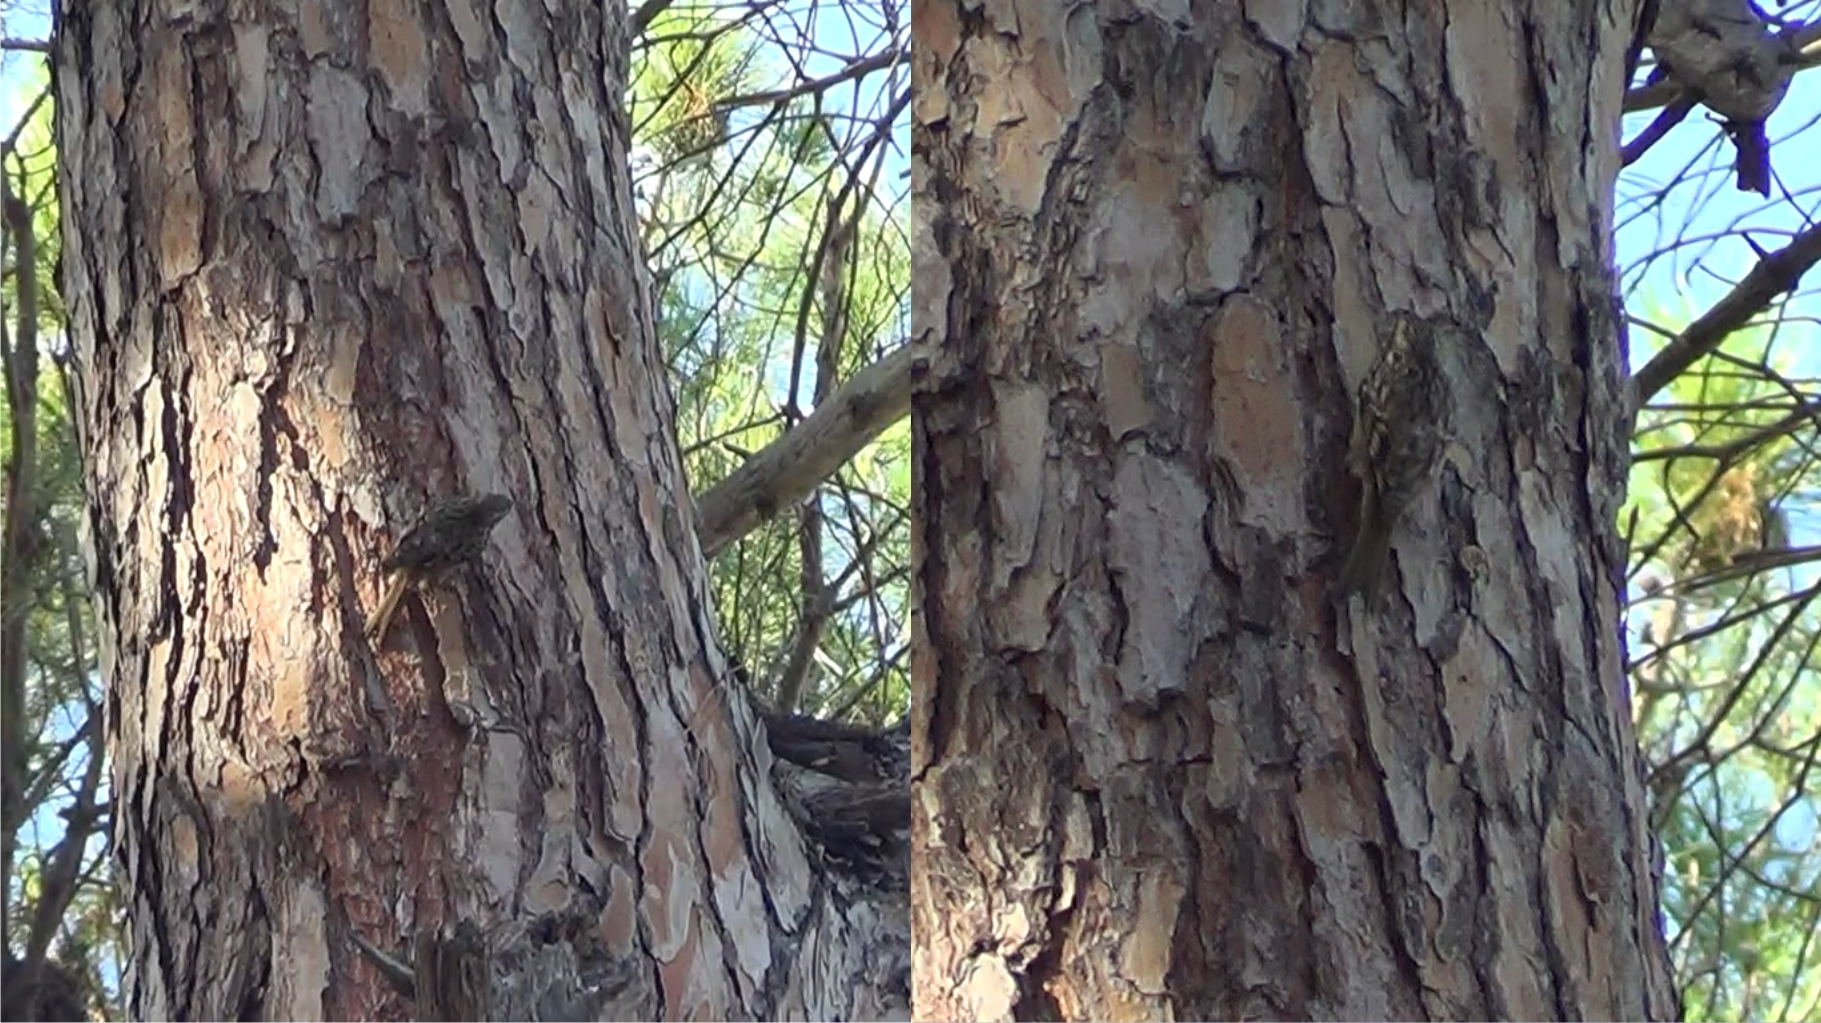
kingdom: Animalia
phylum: Chordata
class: Aves
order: Passeriformes
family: Certhiidae
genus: Certhia
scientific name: Certhia brachydactyla
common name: Short-toed treecreeper
